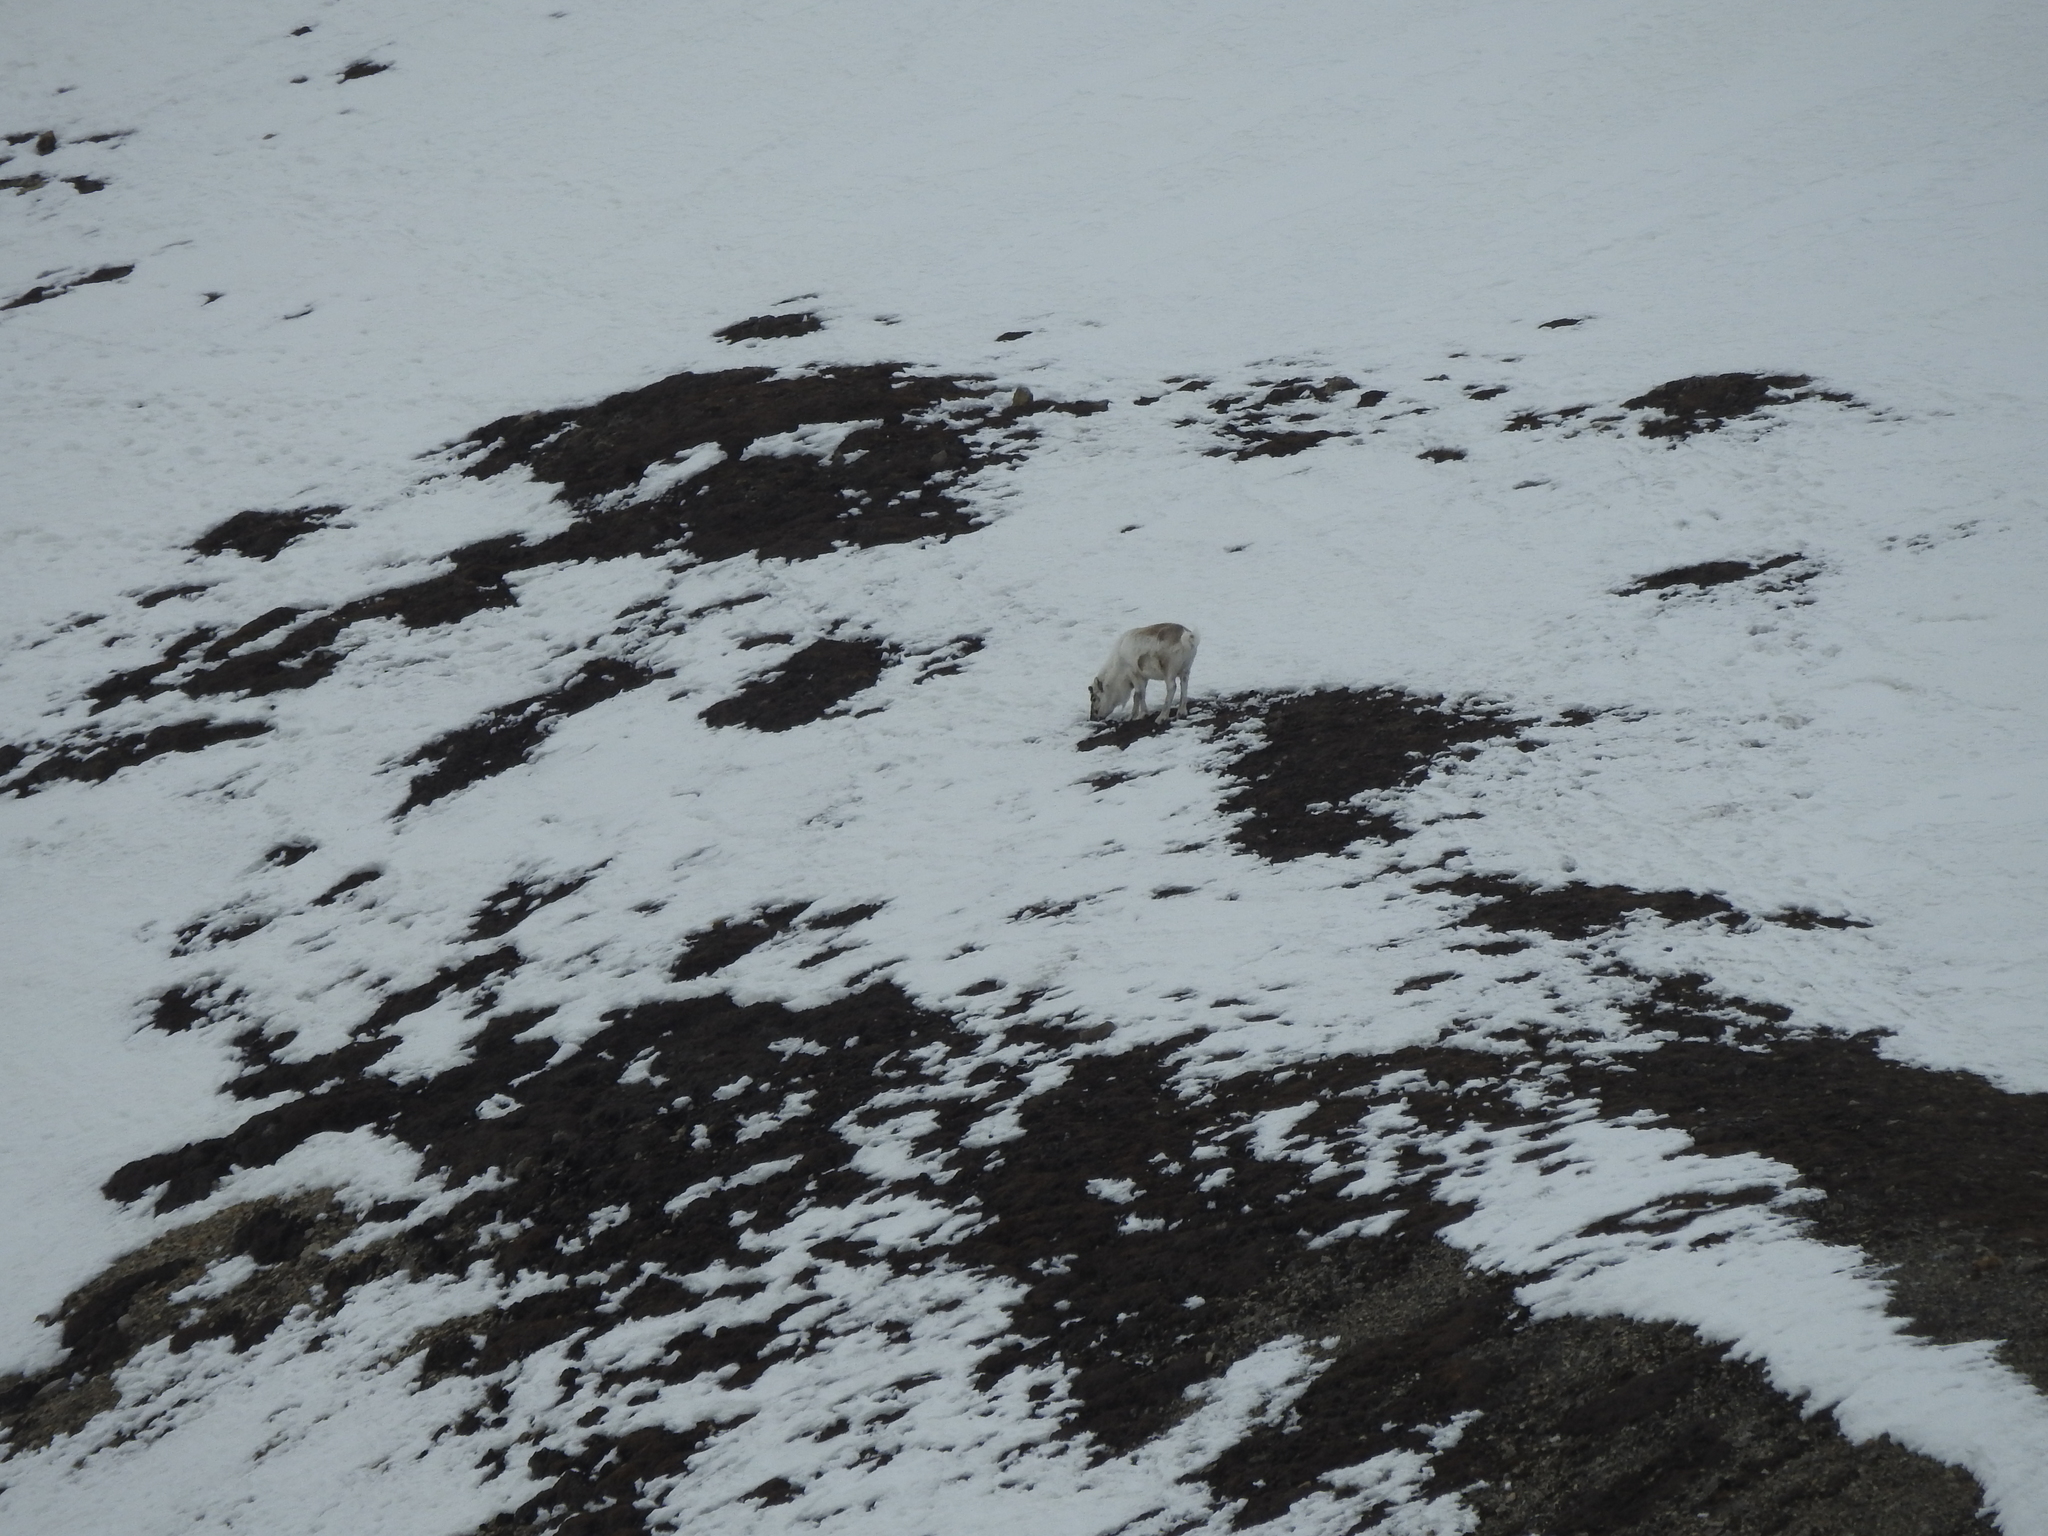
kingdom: Animalia
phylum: Chordata
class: Mammalia
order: Artiodactyla
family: Cervidae
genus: Rangifer
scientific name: Rangifer tarandus
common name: Reindeer
